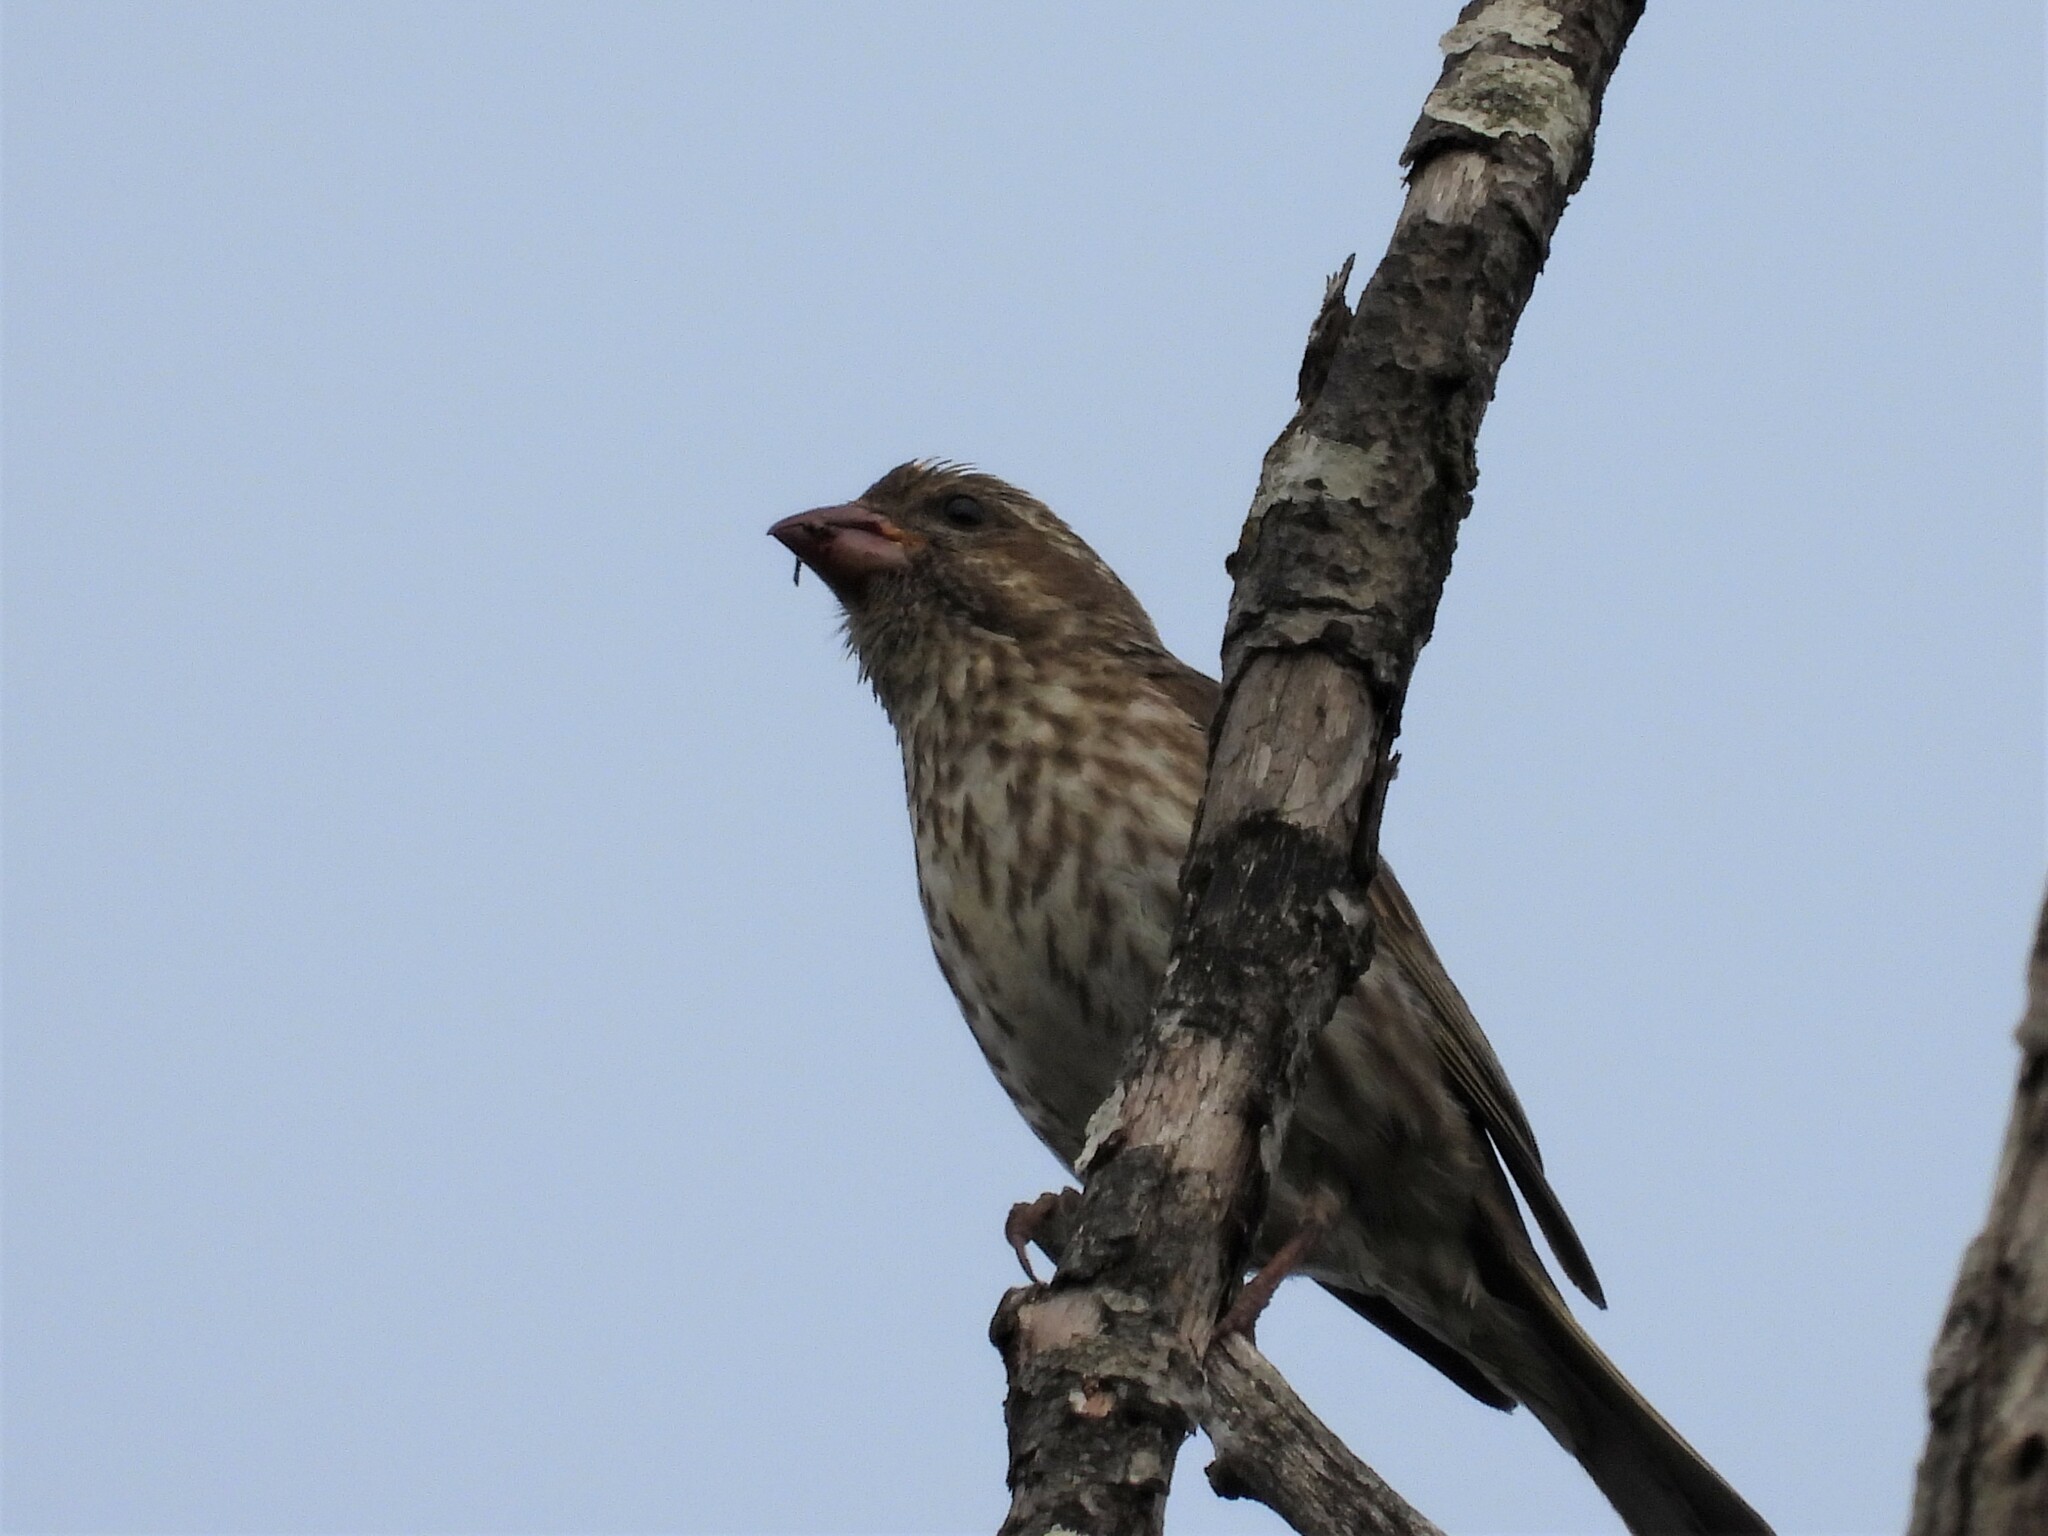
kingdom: Animalia
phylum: Chordata
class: Aves
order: Passeriformes
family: Fringillidae
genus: Haemorhous
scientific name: Haemorhous purpureus
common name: Purple finch
